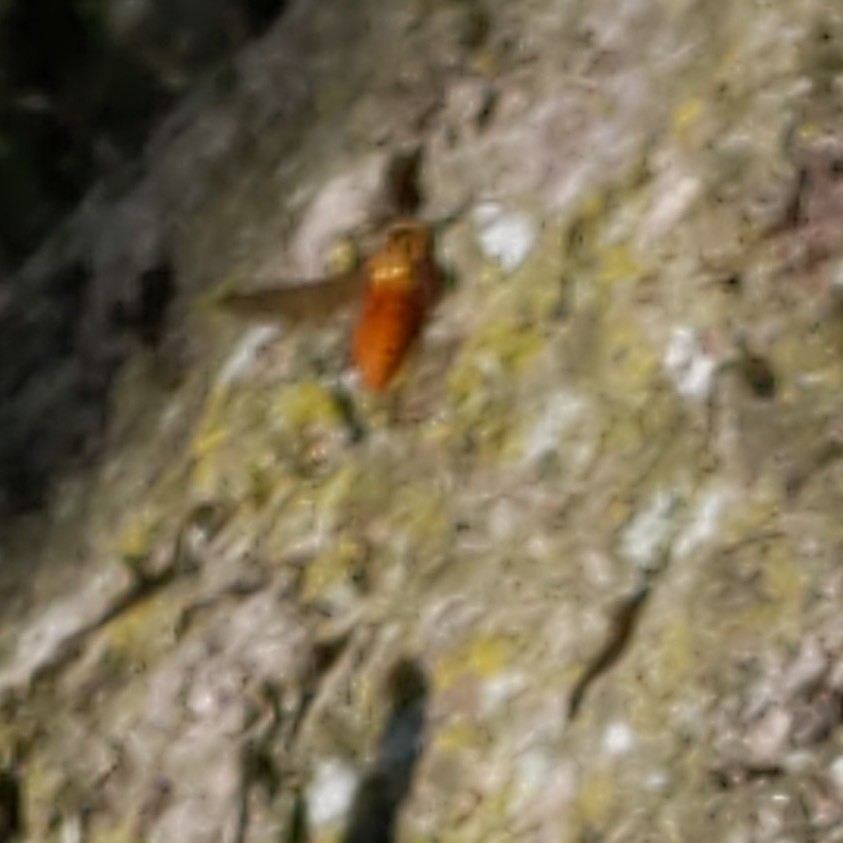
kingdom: Animalia
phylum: Arthropoda
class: Insecta
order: Hymenoptera
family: Vespidae
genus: Vespula
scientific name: Vespula squamosa
